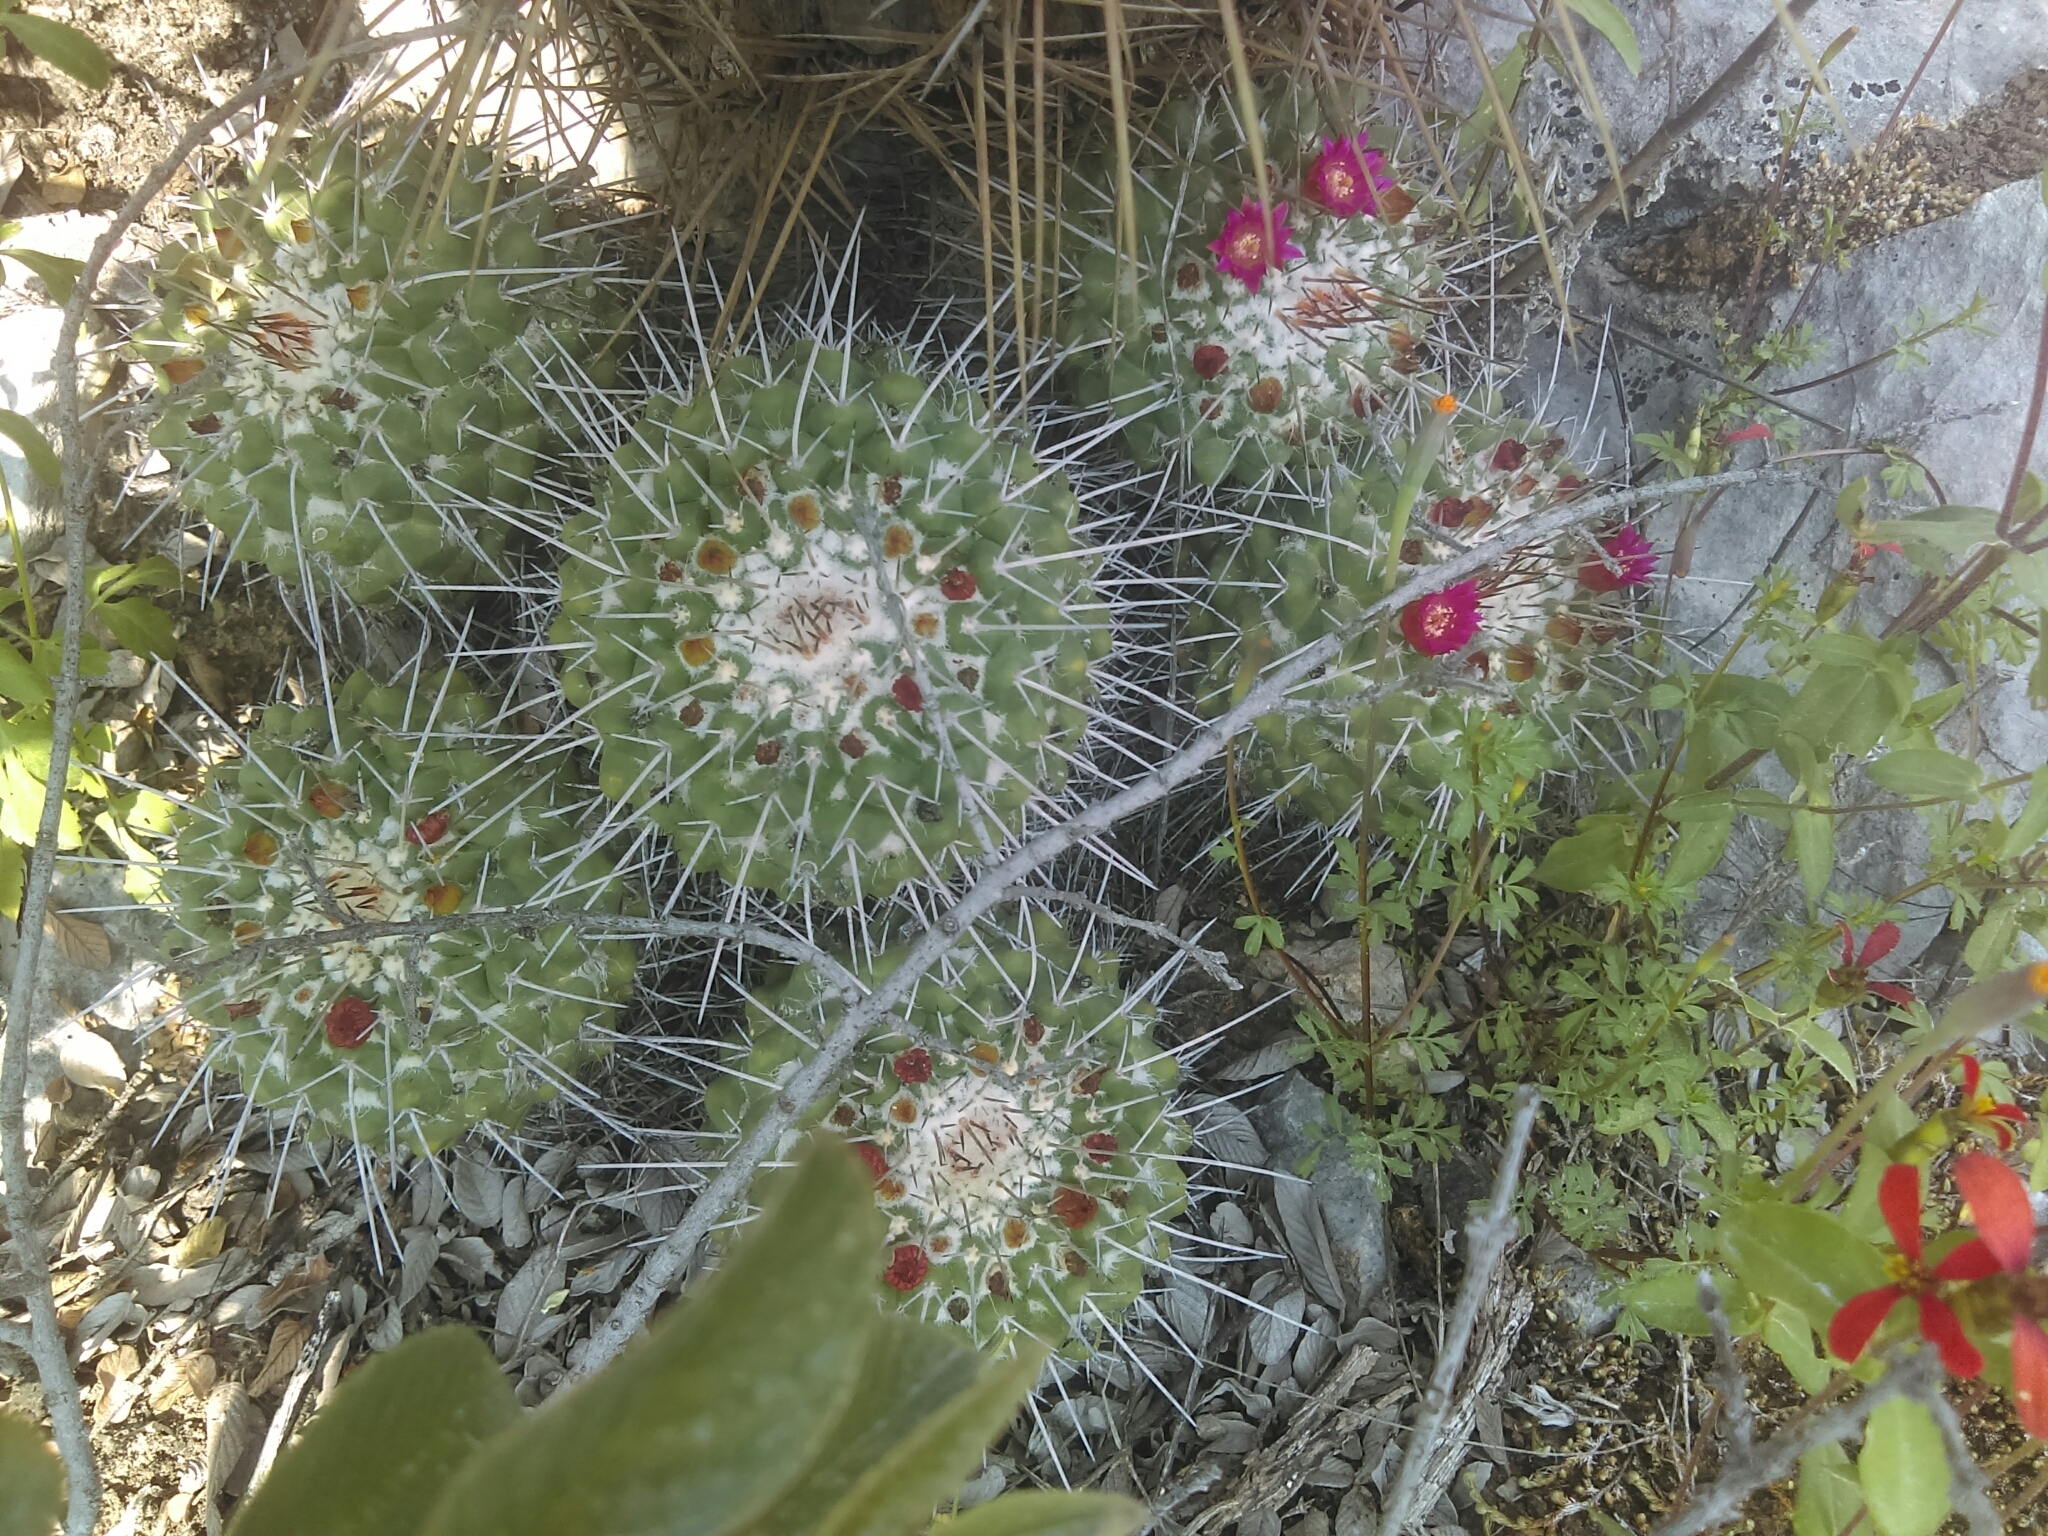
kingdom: Plantae
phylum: Tracheophyta
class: Magnoliopsida
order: Caryophyllales
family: Cactaceae
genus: Mammillaria
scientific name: Mammillaria compressa
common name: Mother-of-hundreds
